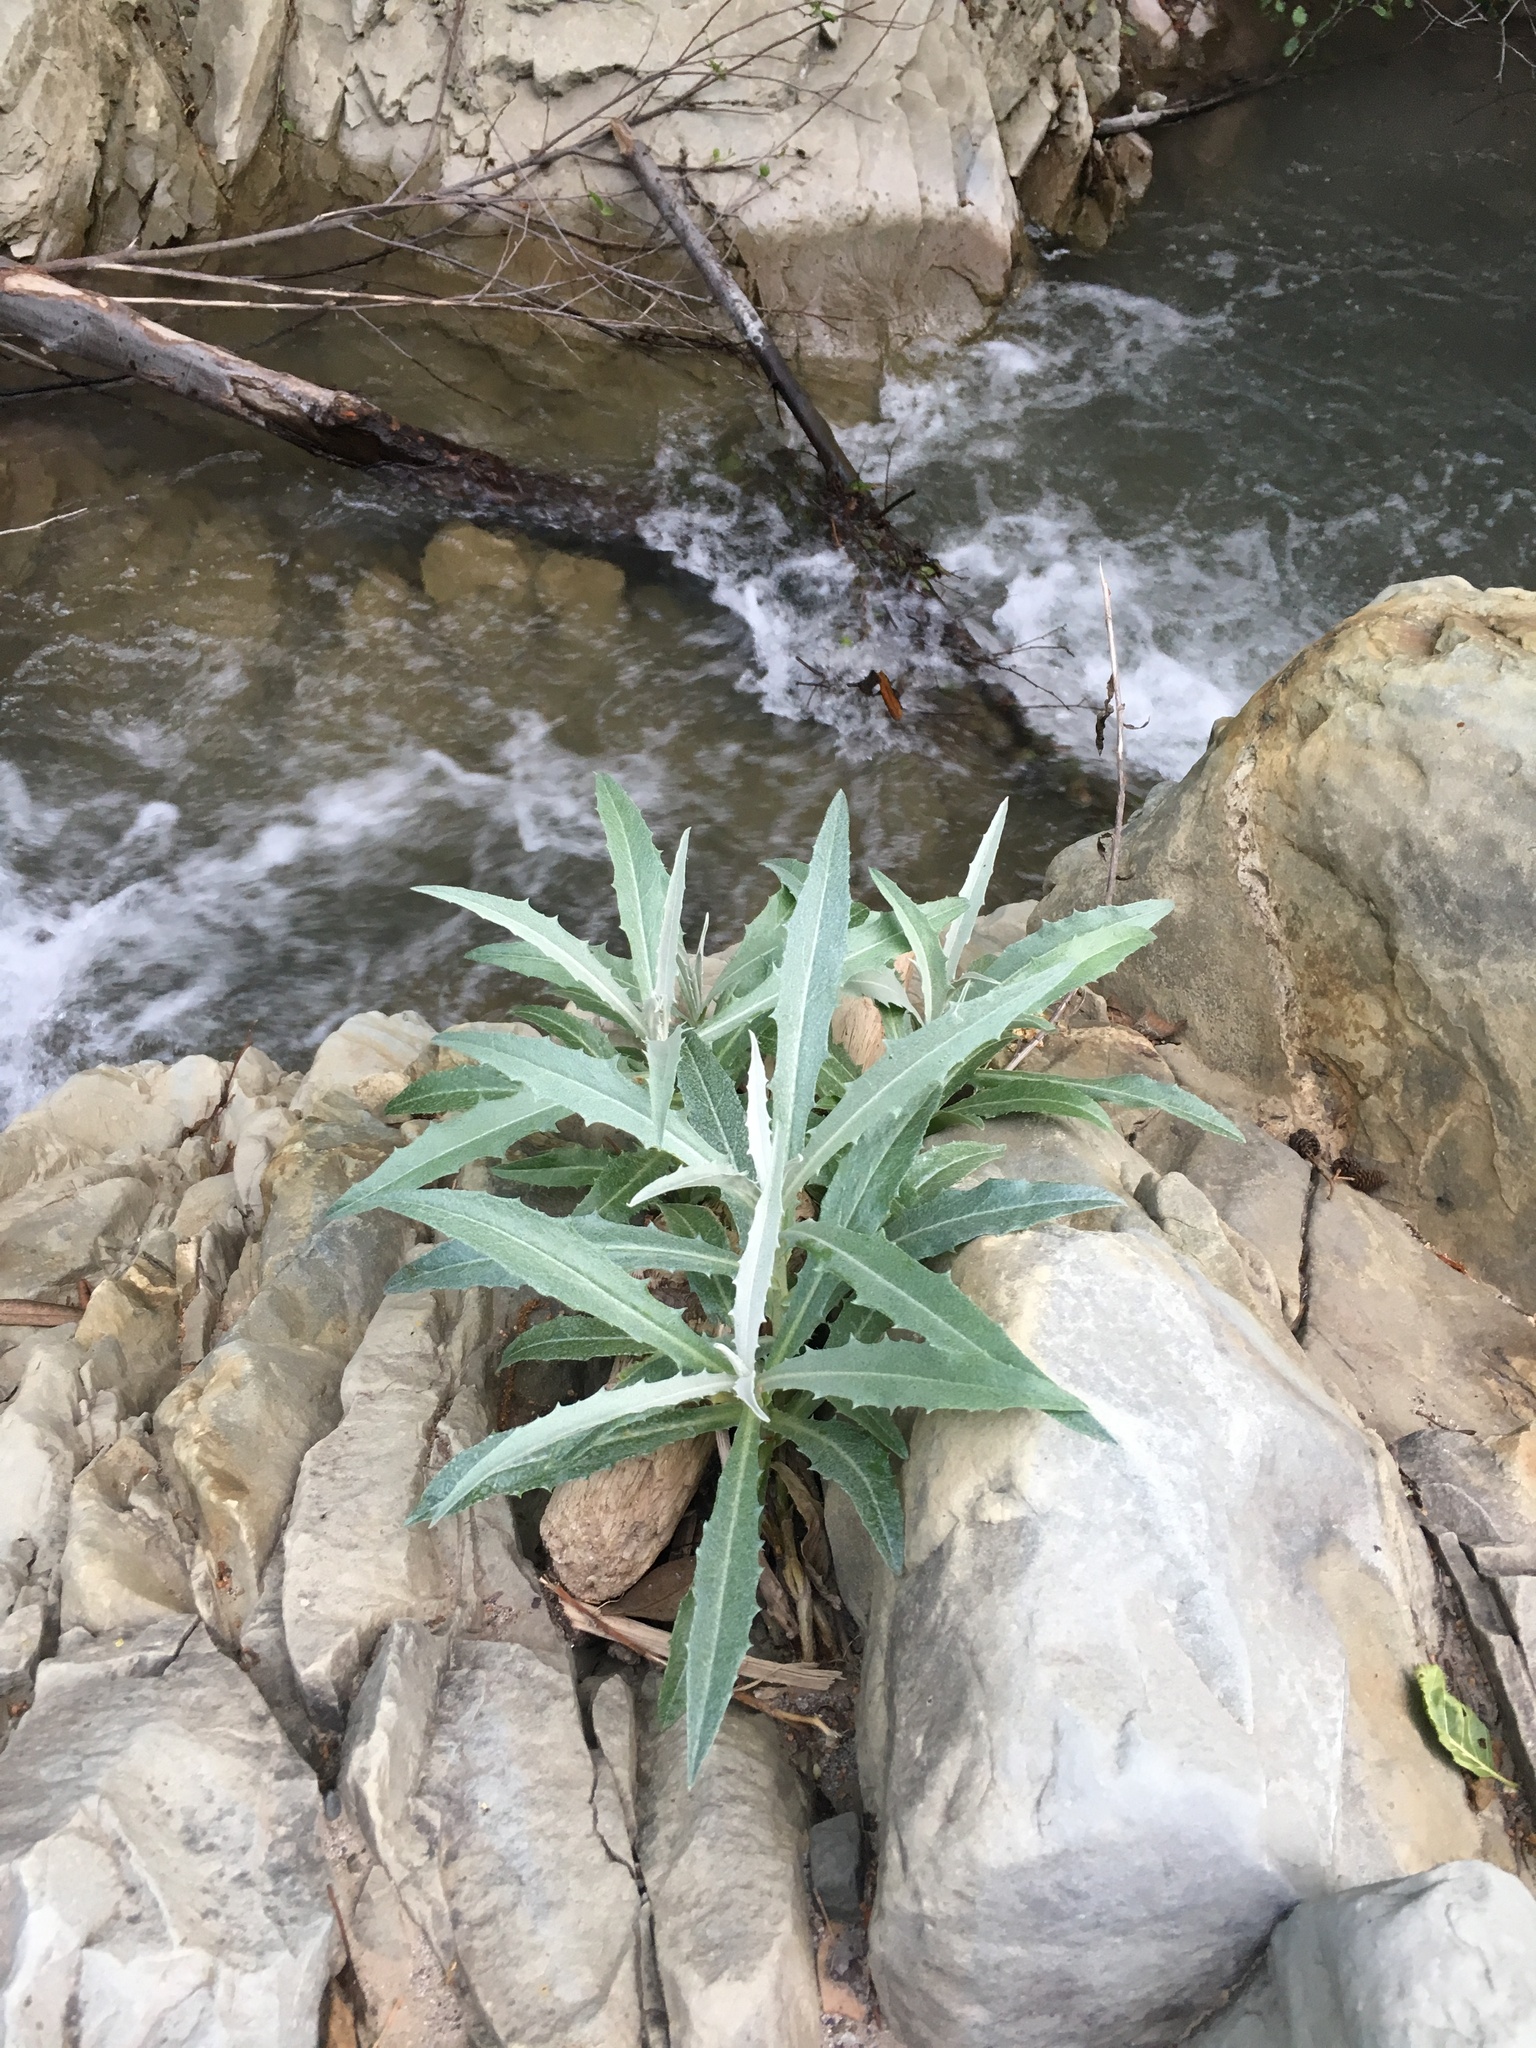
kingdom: Plantae
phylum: Tracheophyta
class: Magnoliopsida
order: Asterales
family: Asteraceae
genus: Stephanomeria
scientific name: Stephanomeria cichoriacea
